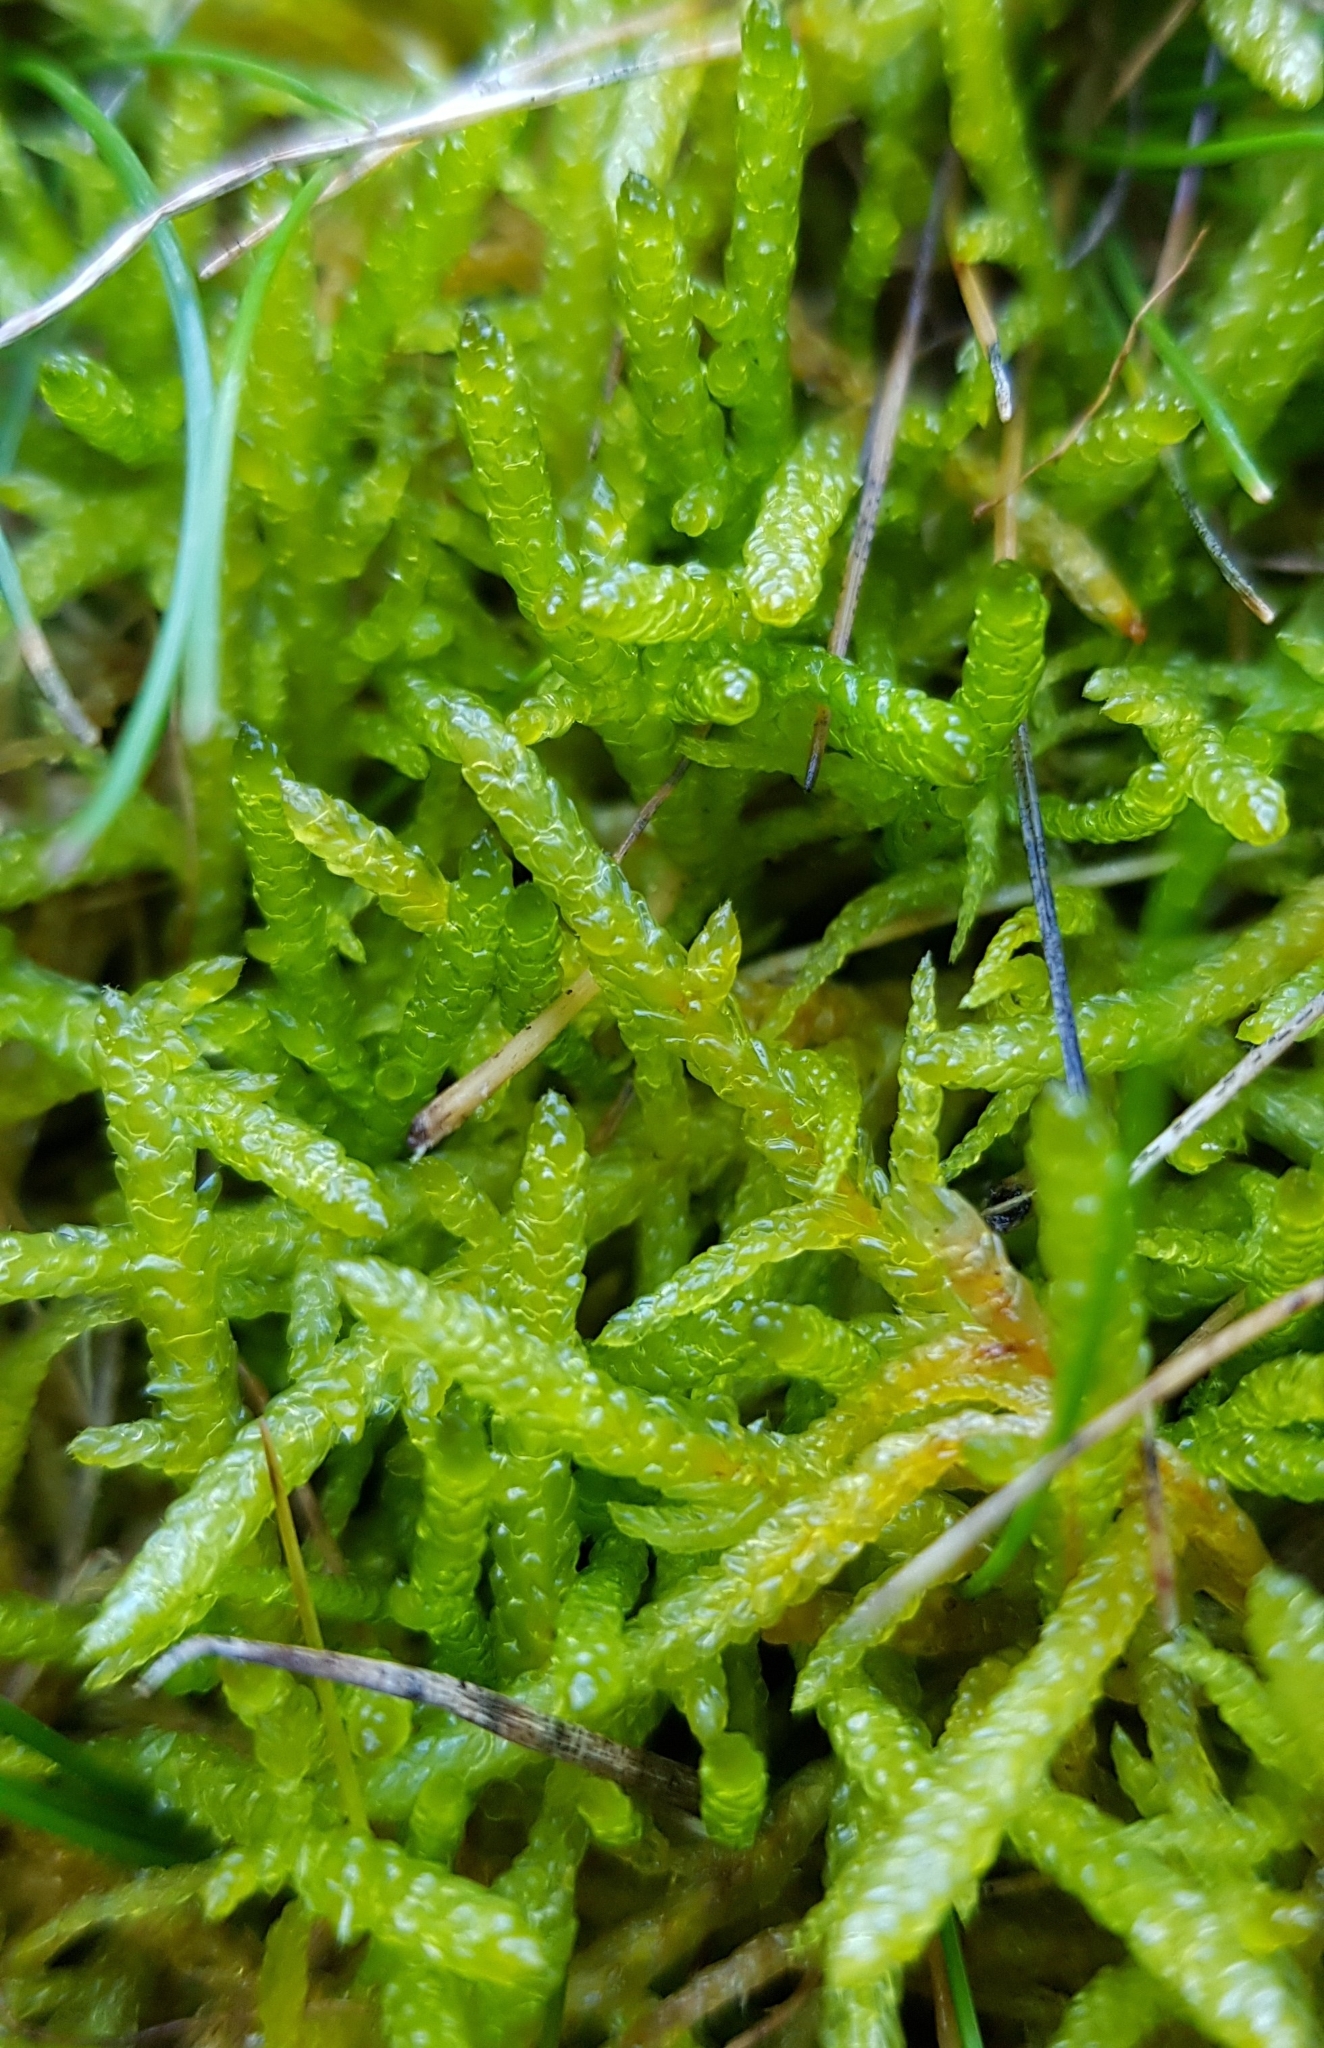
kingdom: Plantae
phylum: Bryophyta
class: Bryopsida
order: Hypnales
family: Brachytheciaceae
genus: Pseudoscleropodium
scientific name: Pseudoscleropodium purum
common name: Neat feather-moss
